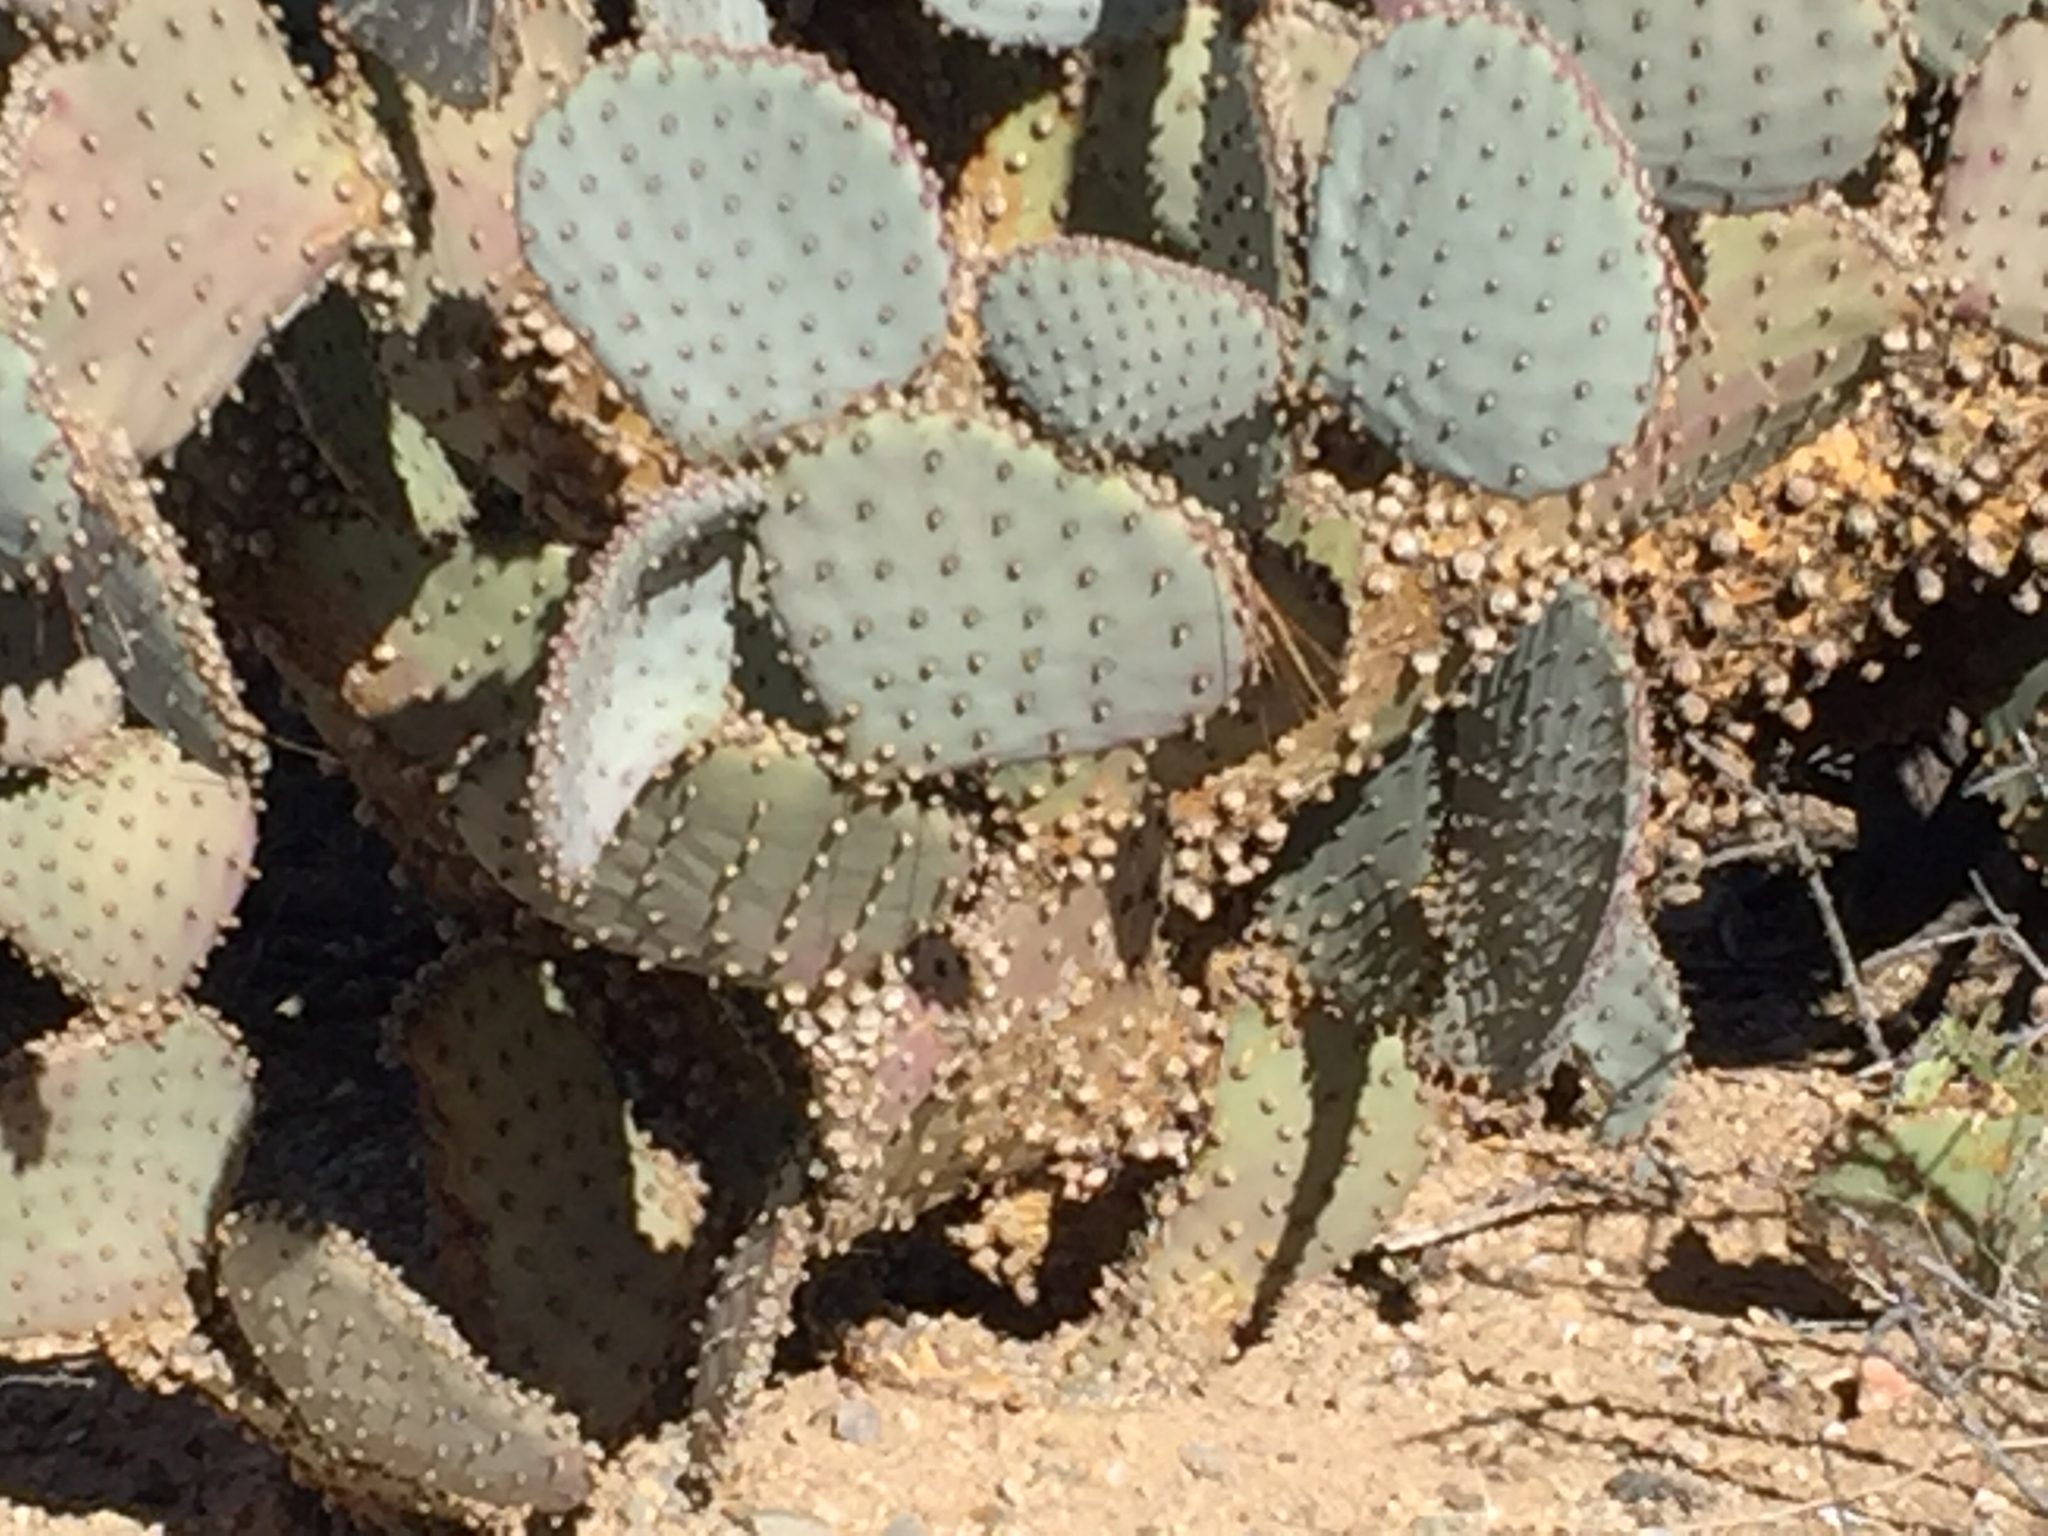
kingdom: Plantae
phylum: Tracheophyta
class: Magnoliopsida
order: Caryophyllales
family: Cactaceae
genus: Opuntia
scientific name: Opuntia gosseliniana
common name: Violet prickly-pear
